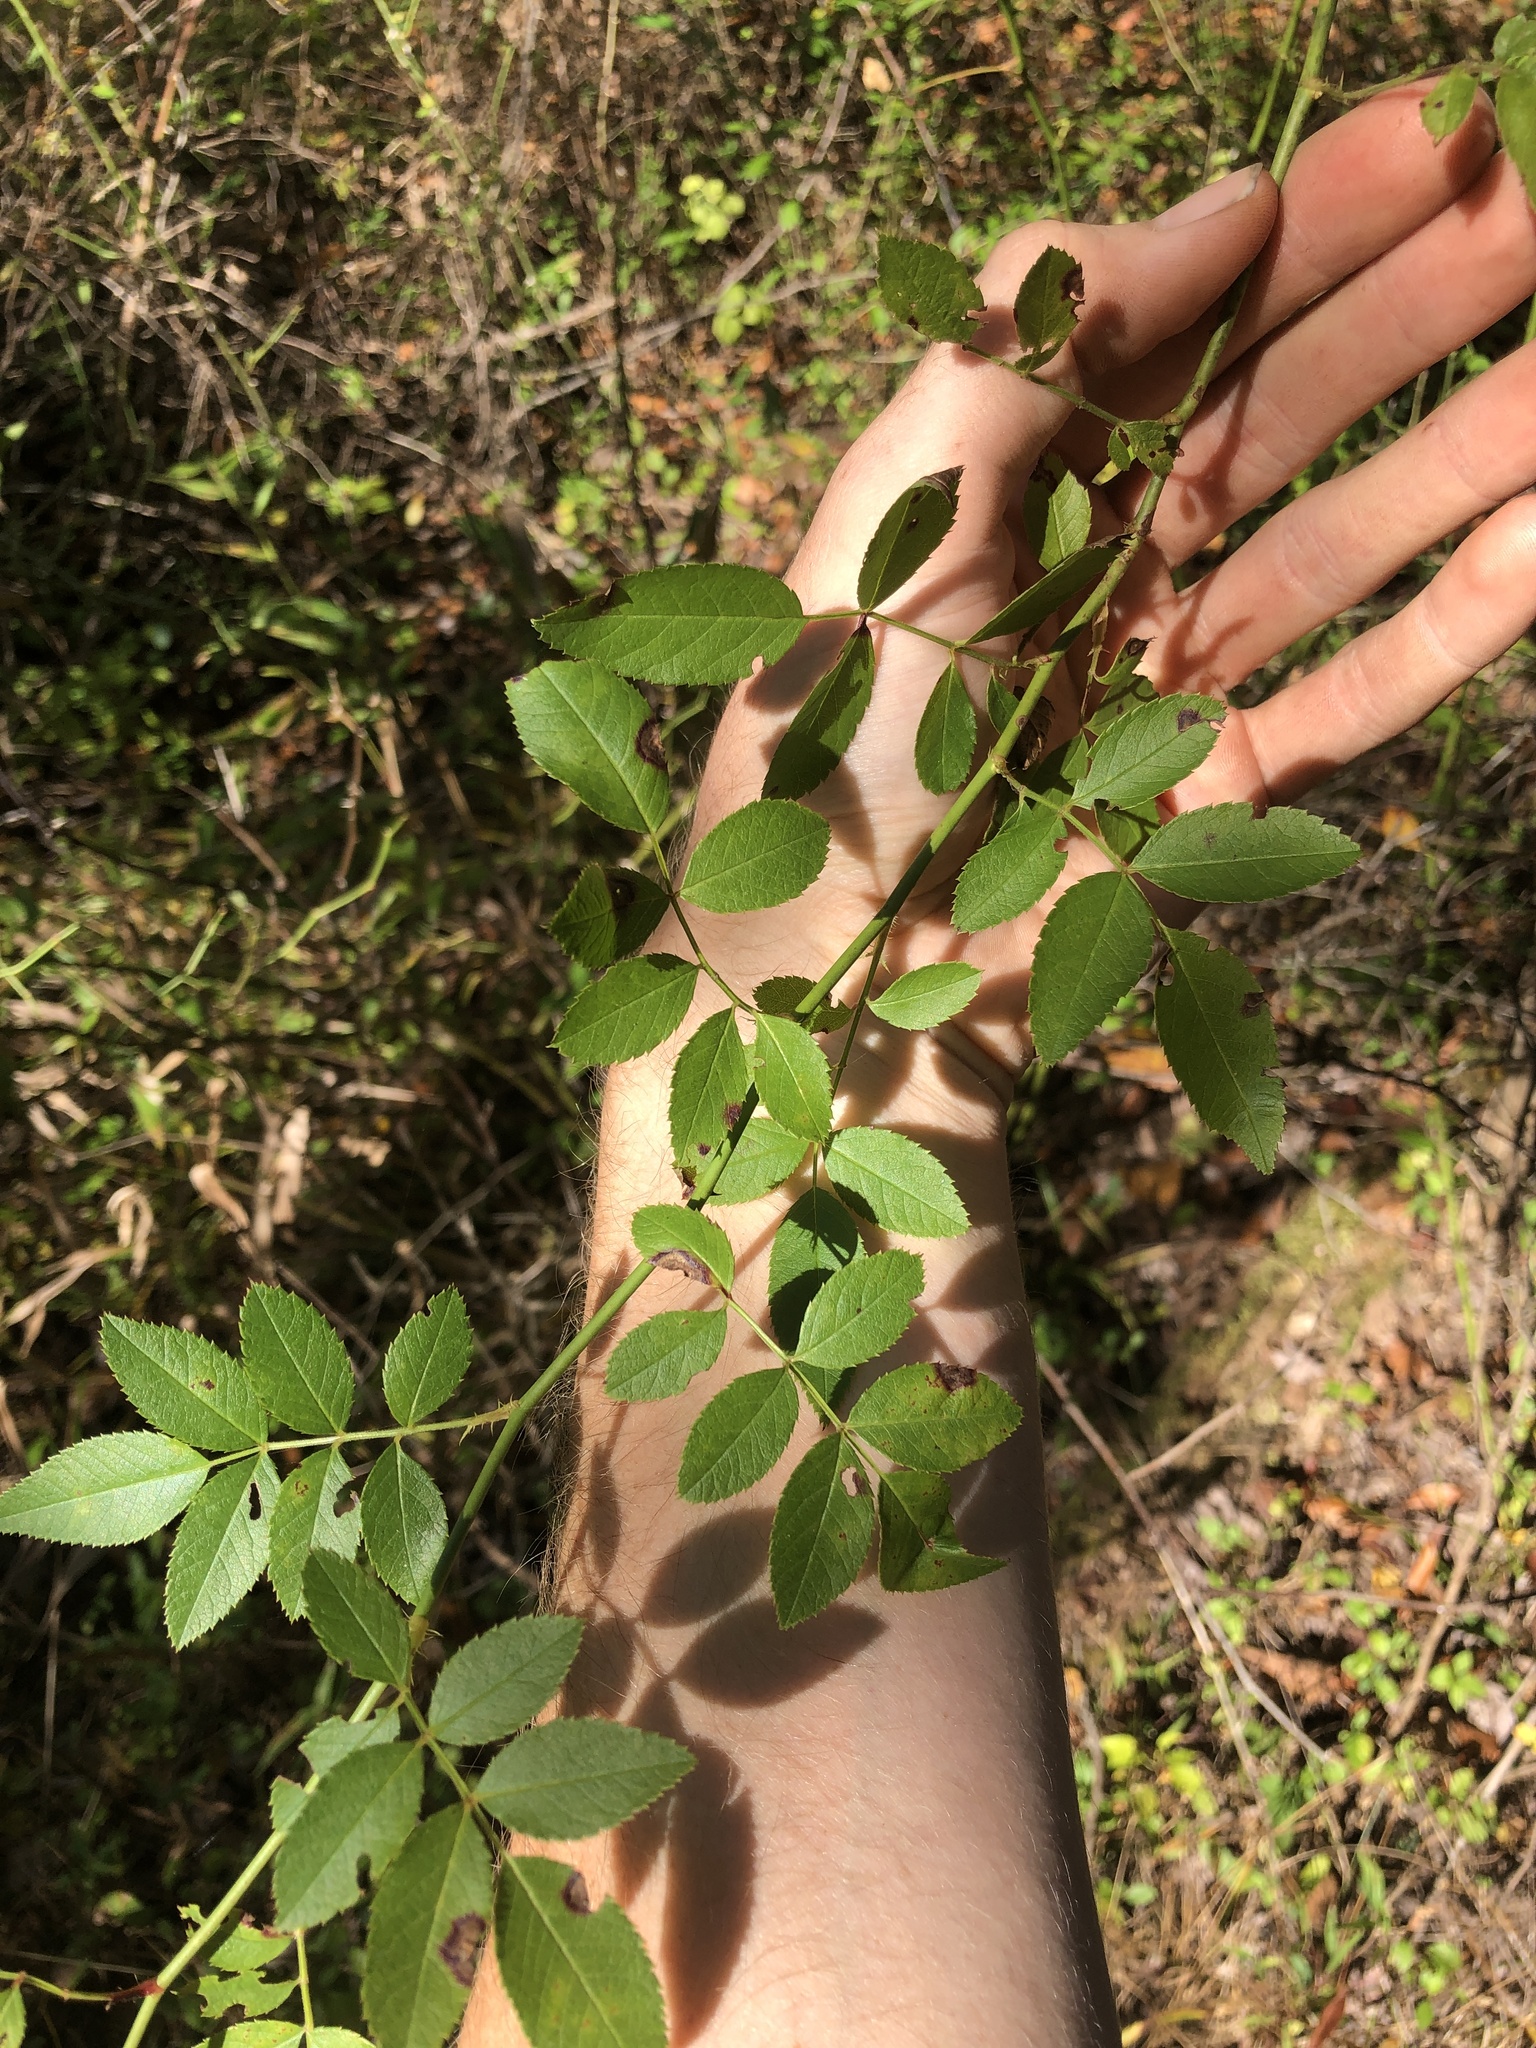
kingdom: Plantae
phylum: Tracheophyta
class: Magnoliopsida
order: Rosales
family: Rosaceae
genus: Rosa
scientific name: Rosa multiflora
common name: Multiflora rose
